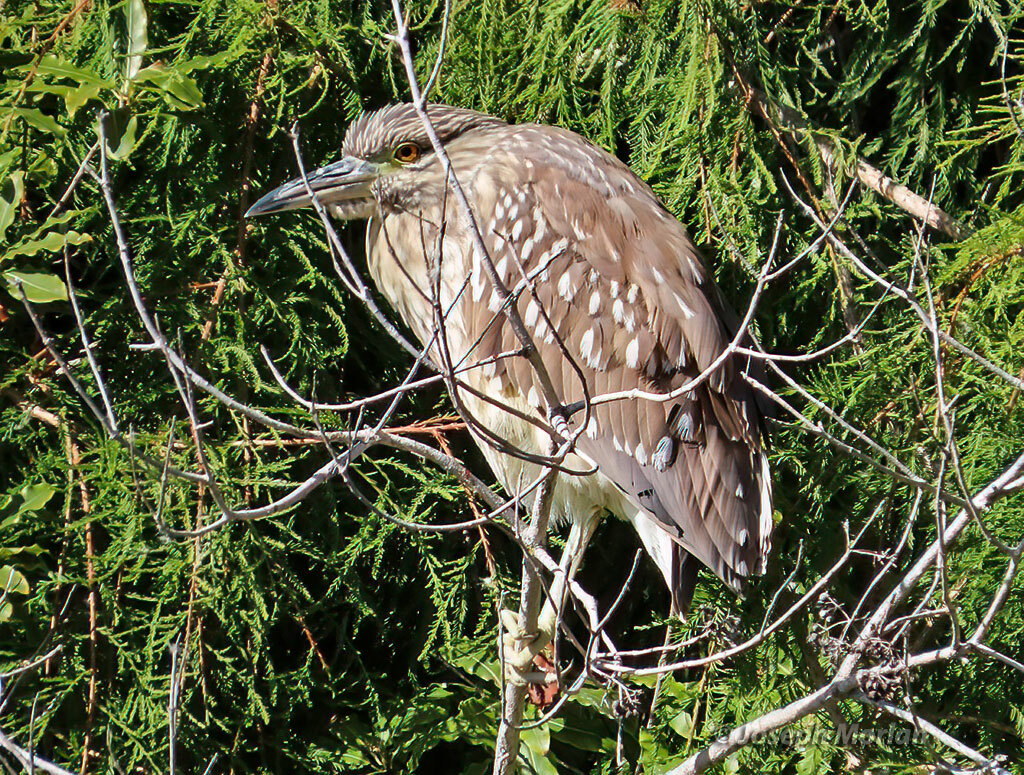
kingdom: Animalia
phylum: Chordata
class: Aves
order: Pelecaniformes
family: Ardeidae
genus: Nycticorax
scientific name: Nycticorax nycticorax
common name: Black-crowned night heron
